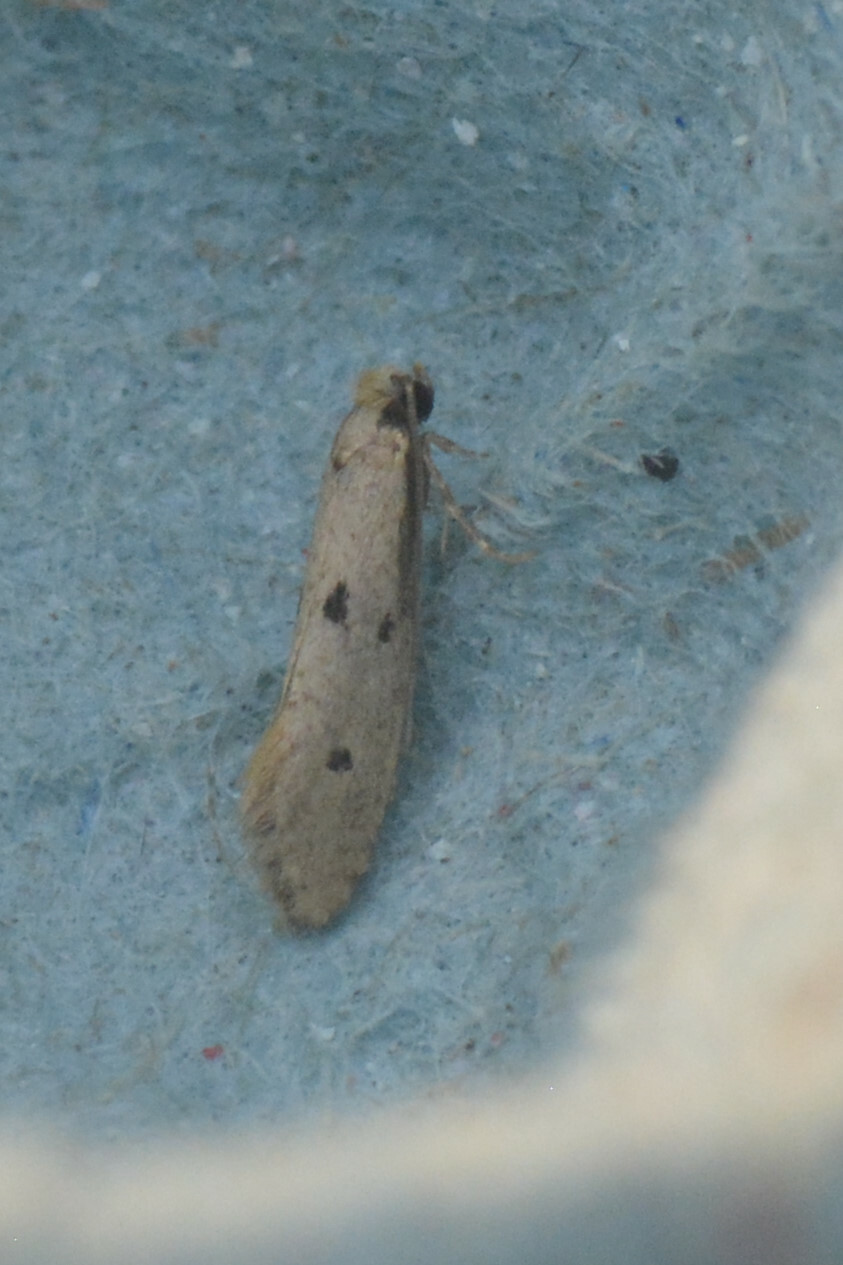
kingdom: Animalia
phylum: Arthropoda
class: Insecta
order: Lepidoptera
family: Tineidae
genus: Tinea
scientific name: Tinea trinotella
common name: Bird's-nest moth
